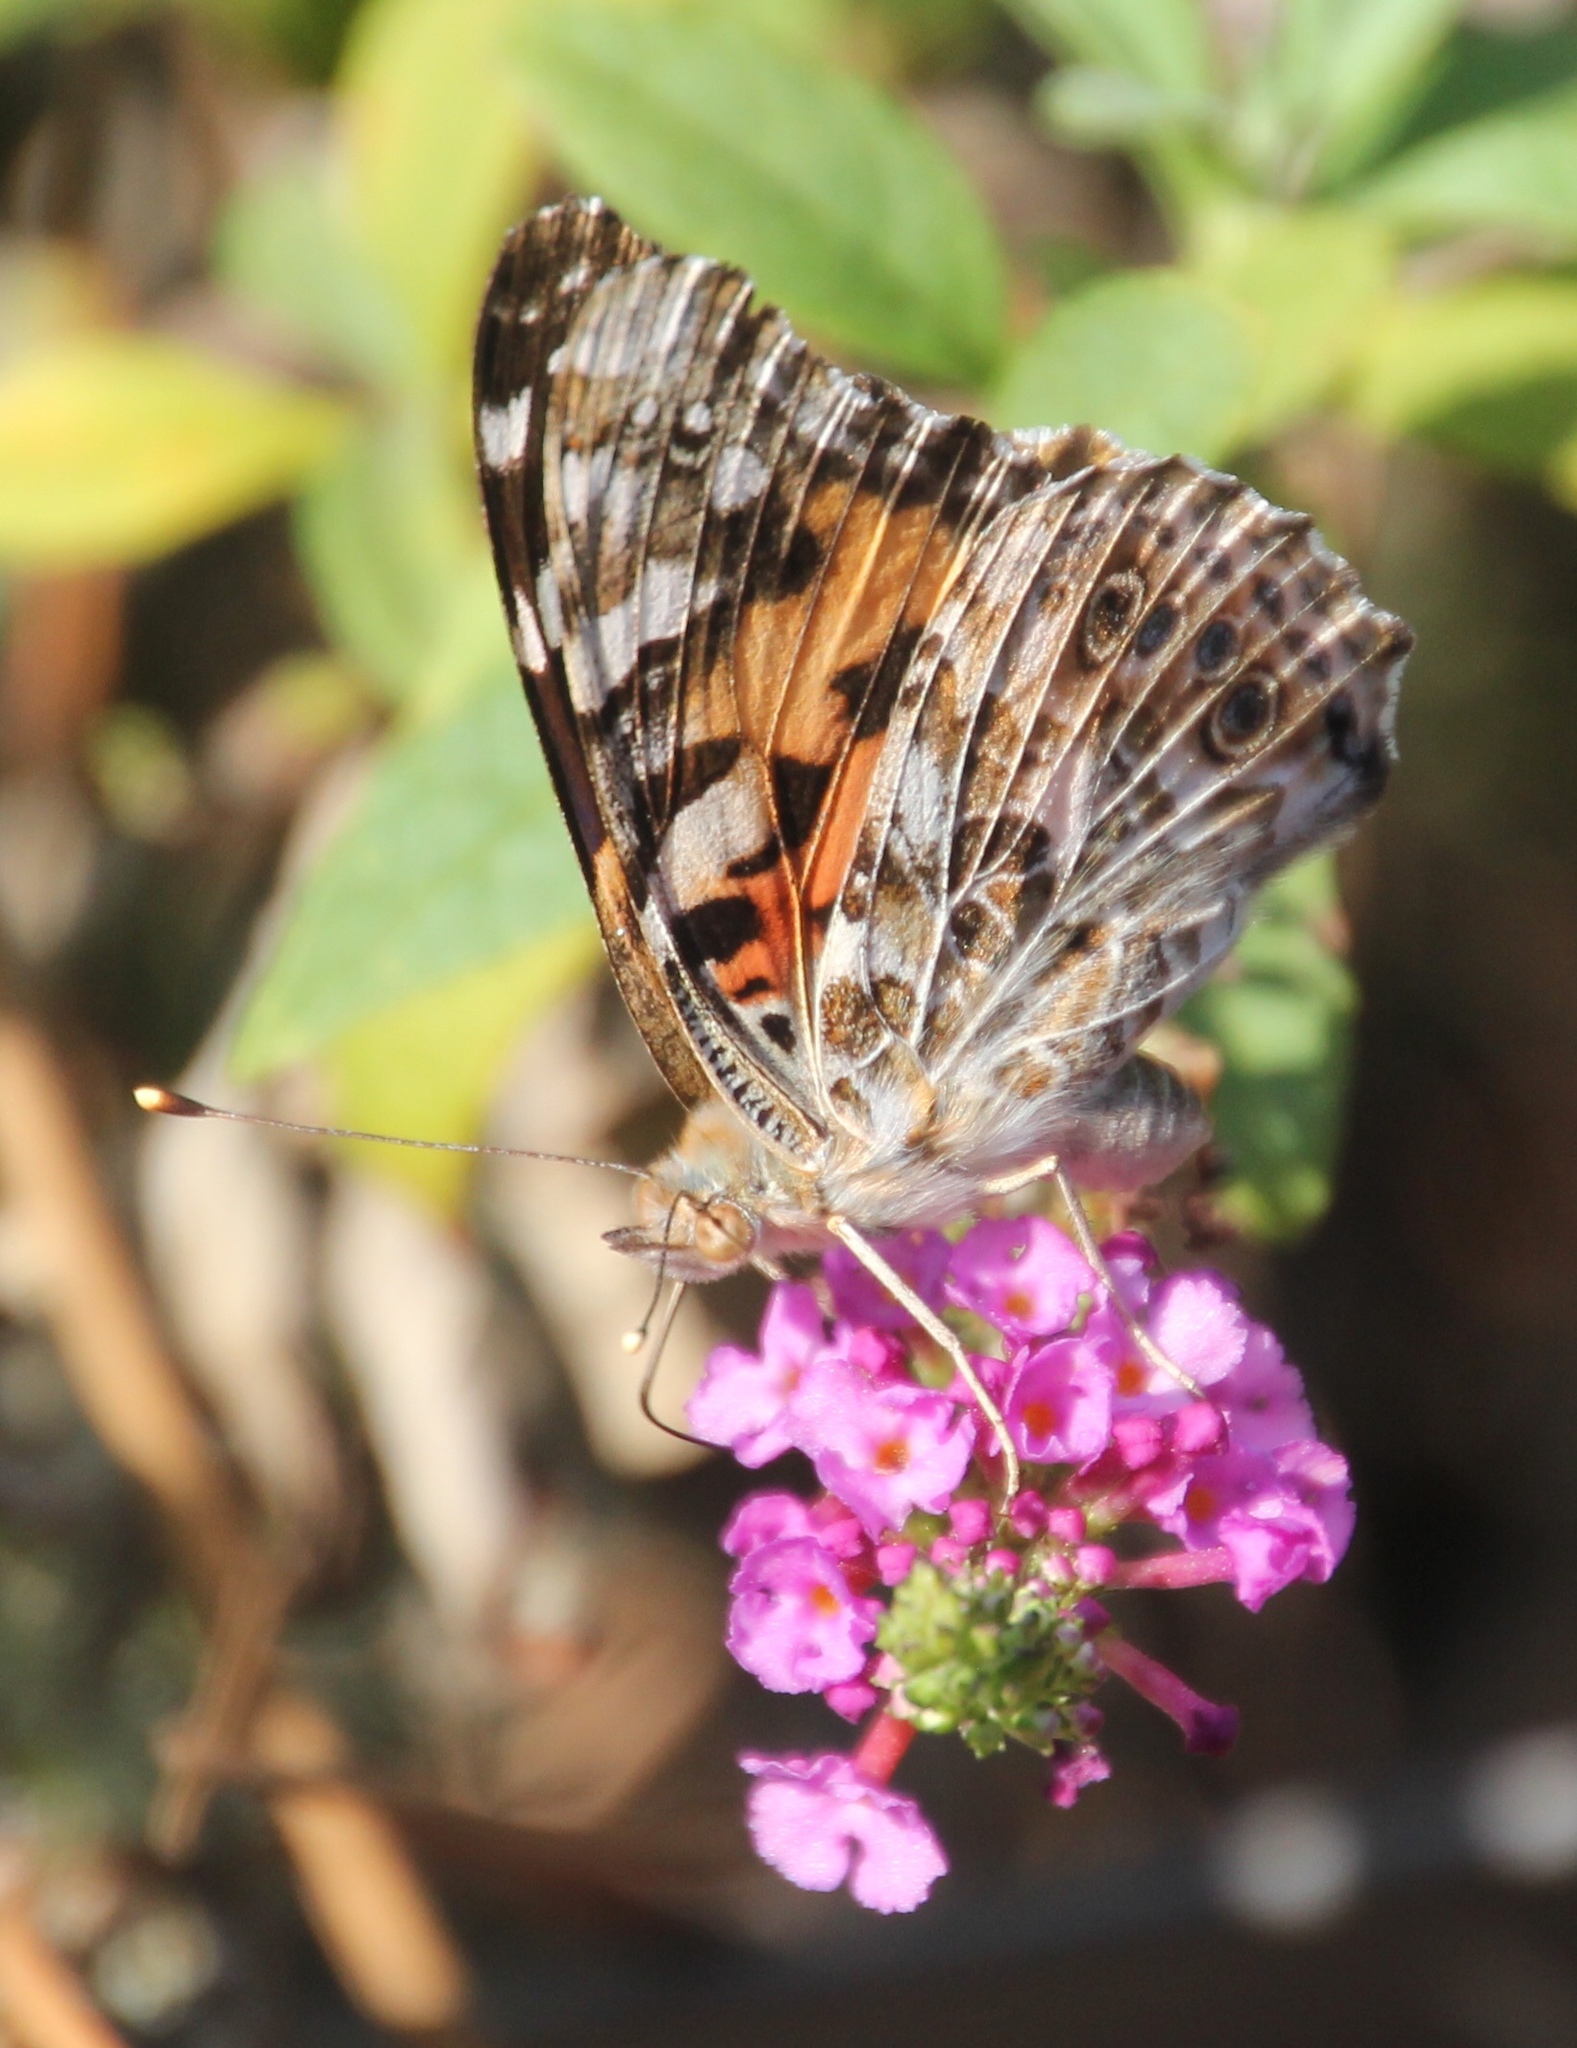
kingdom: Animalia
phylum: Arthropoda
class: Insecta
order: Lepidoptera
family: Nymphalidae
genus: Vanessa
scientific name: Vanessa cardui
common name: Painted lady
